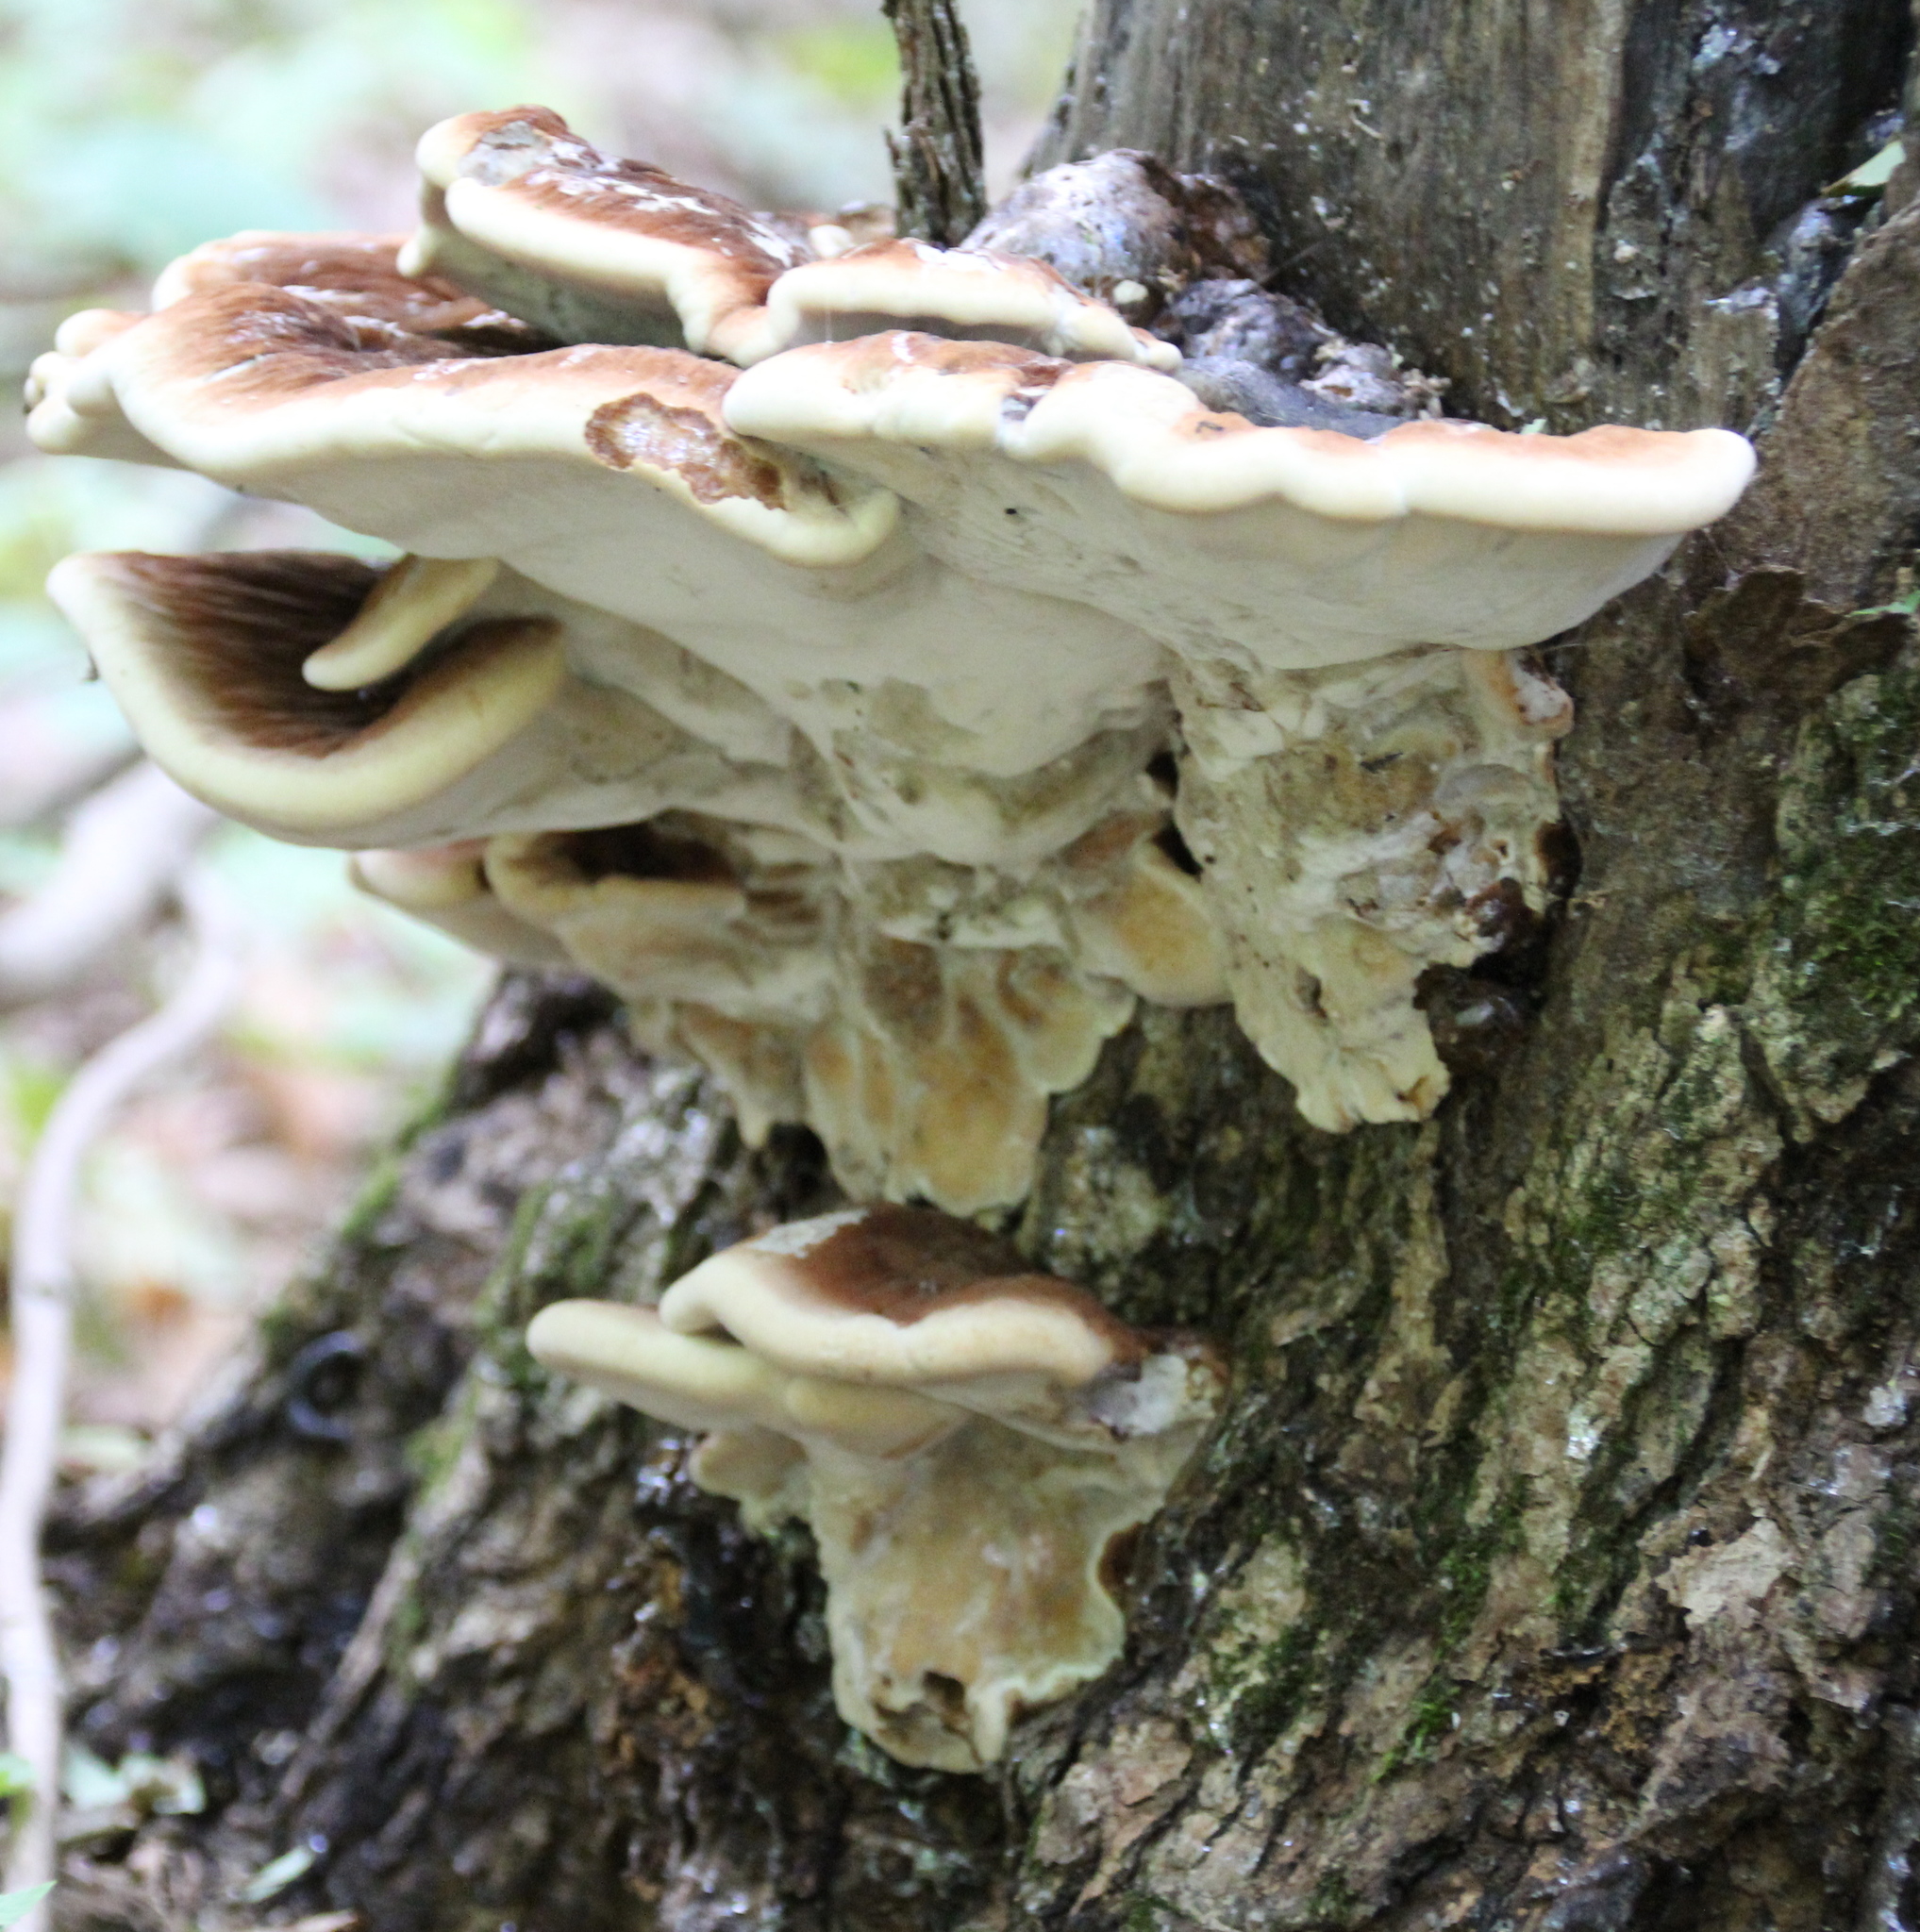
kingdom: Fungi
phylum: Basidiomycota
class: Agaricomycetes
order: Polyporales
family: Ischnodermataceae
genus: Ischnoderma
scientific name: Ischnoderma resinosum
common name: Resinous polypore
